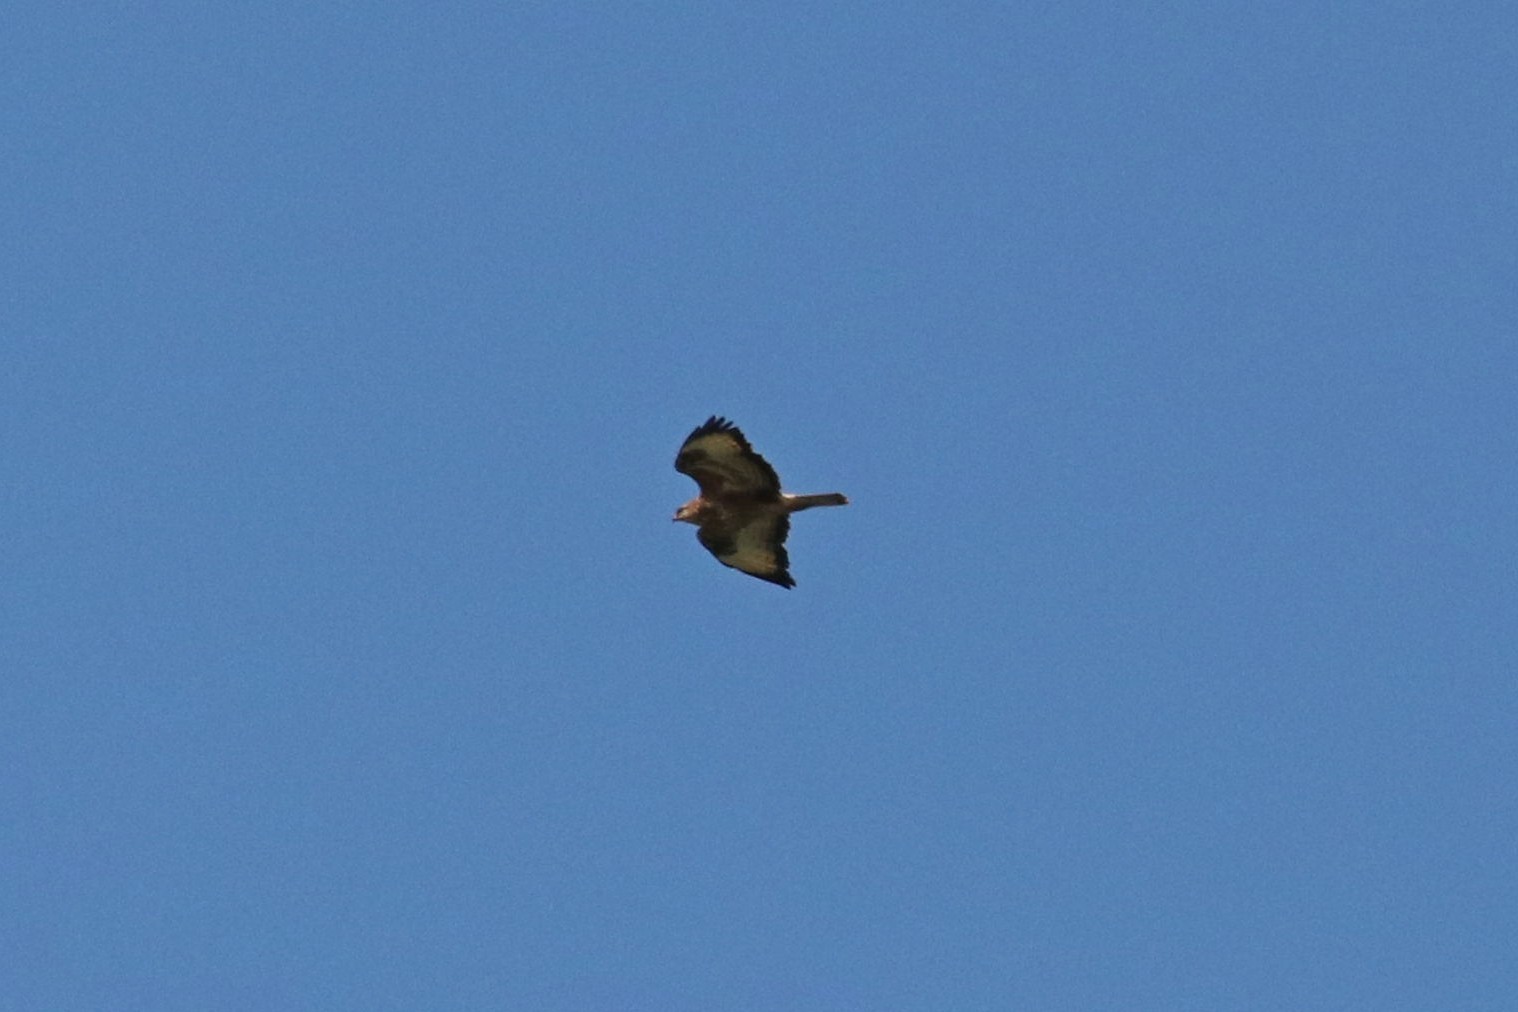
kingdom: Animalia
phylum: Chordata
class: Aves
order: Accipitriformes
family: Accipitridae
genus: Buteo
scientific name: Buteo buteo
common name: Common buzzard
